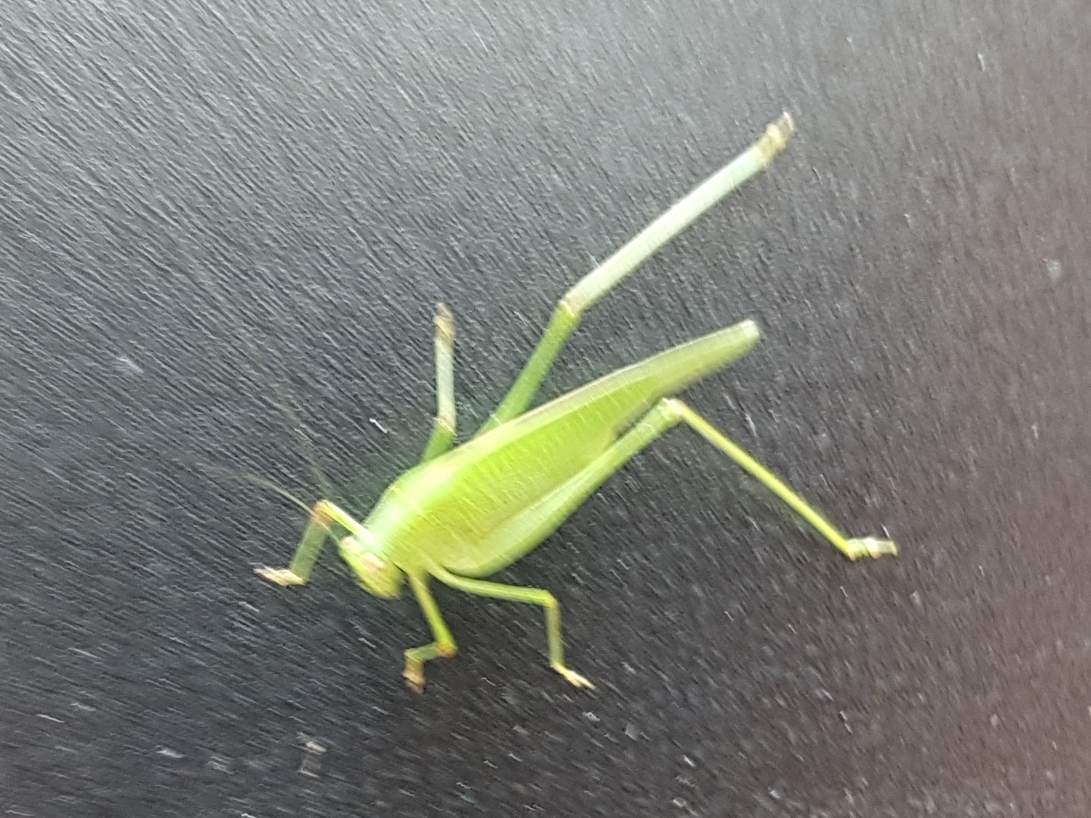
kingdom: Animalia
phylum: Arthropoda
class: Insecta
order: Orthoptera
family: Tettigoniidae
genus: Phaneroptera
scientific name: Phaneroptera nana
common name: Southern sickle bush-cricket
